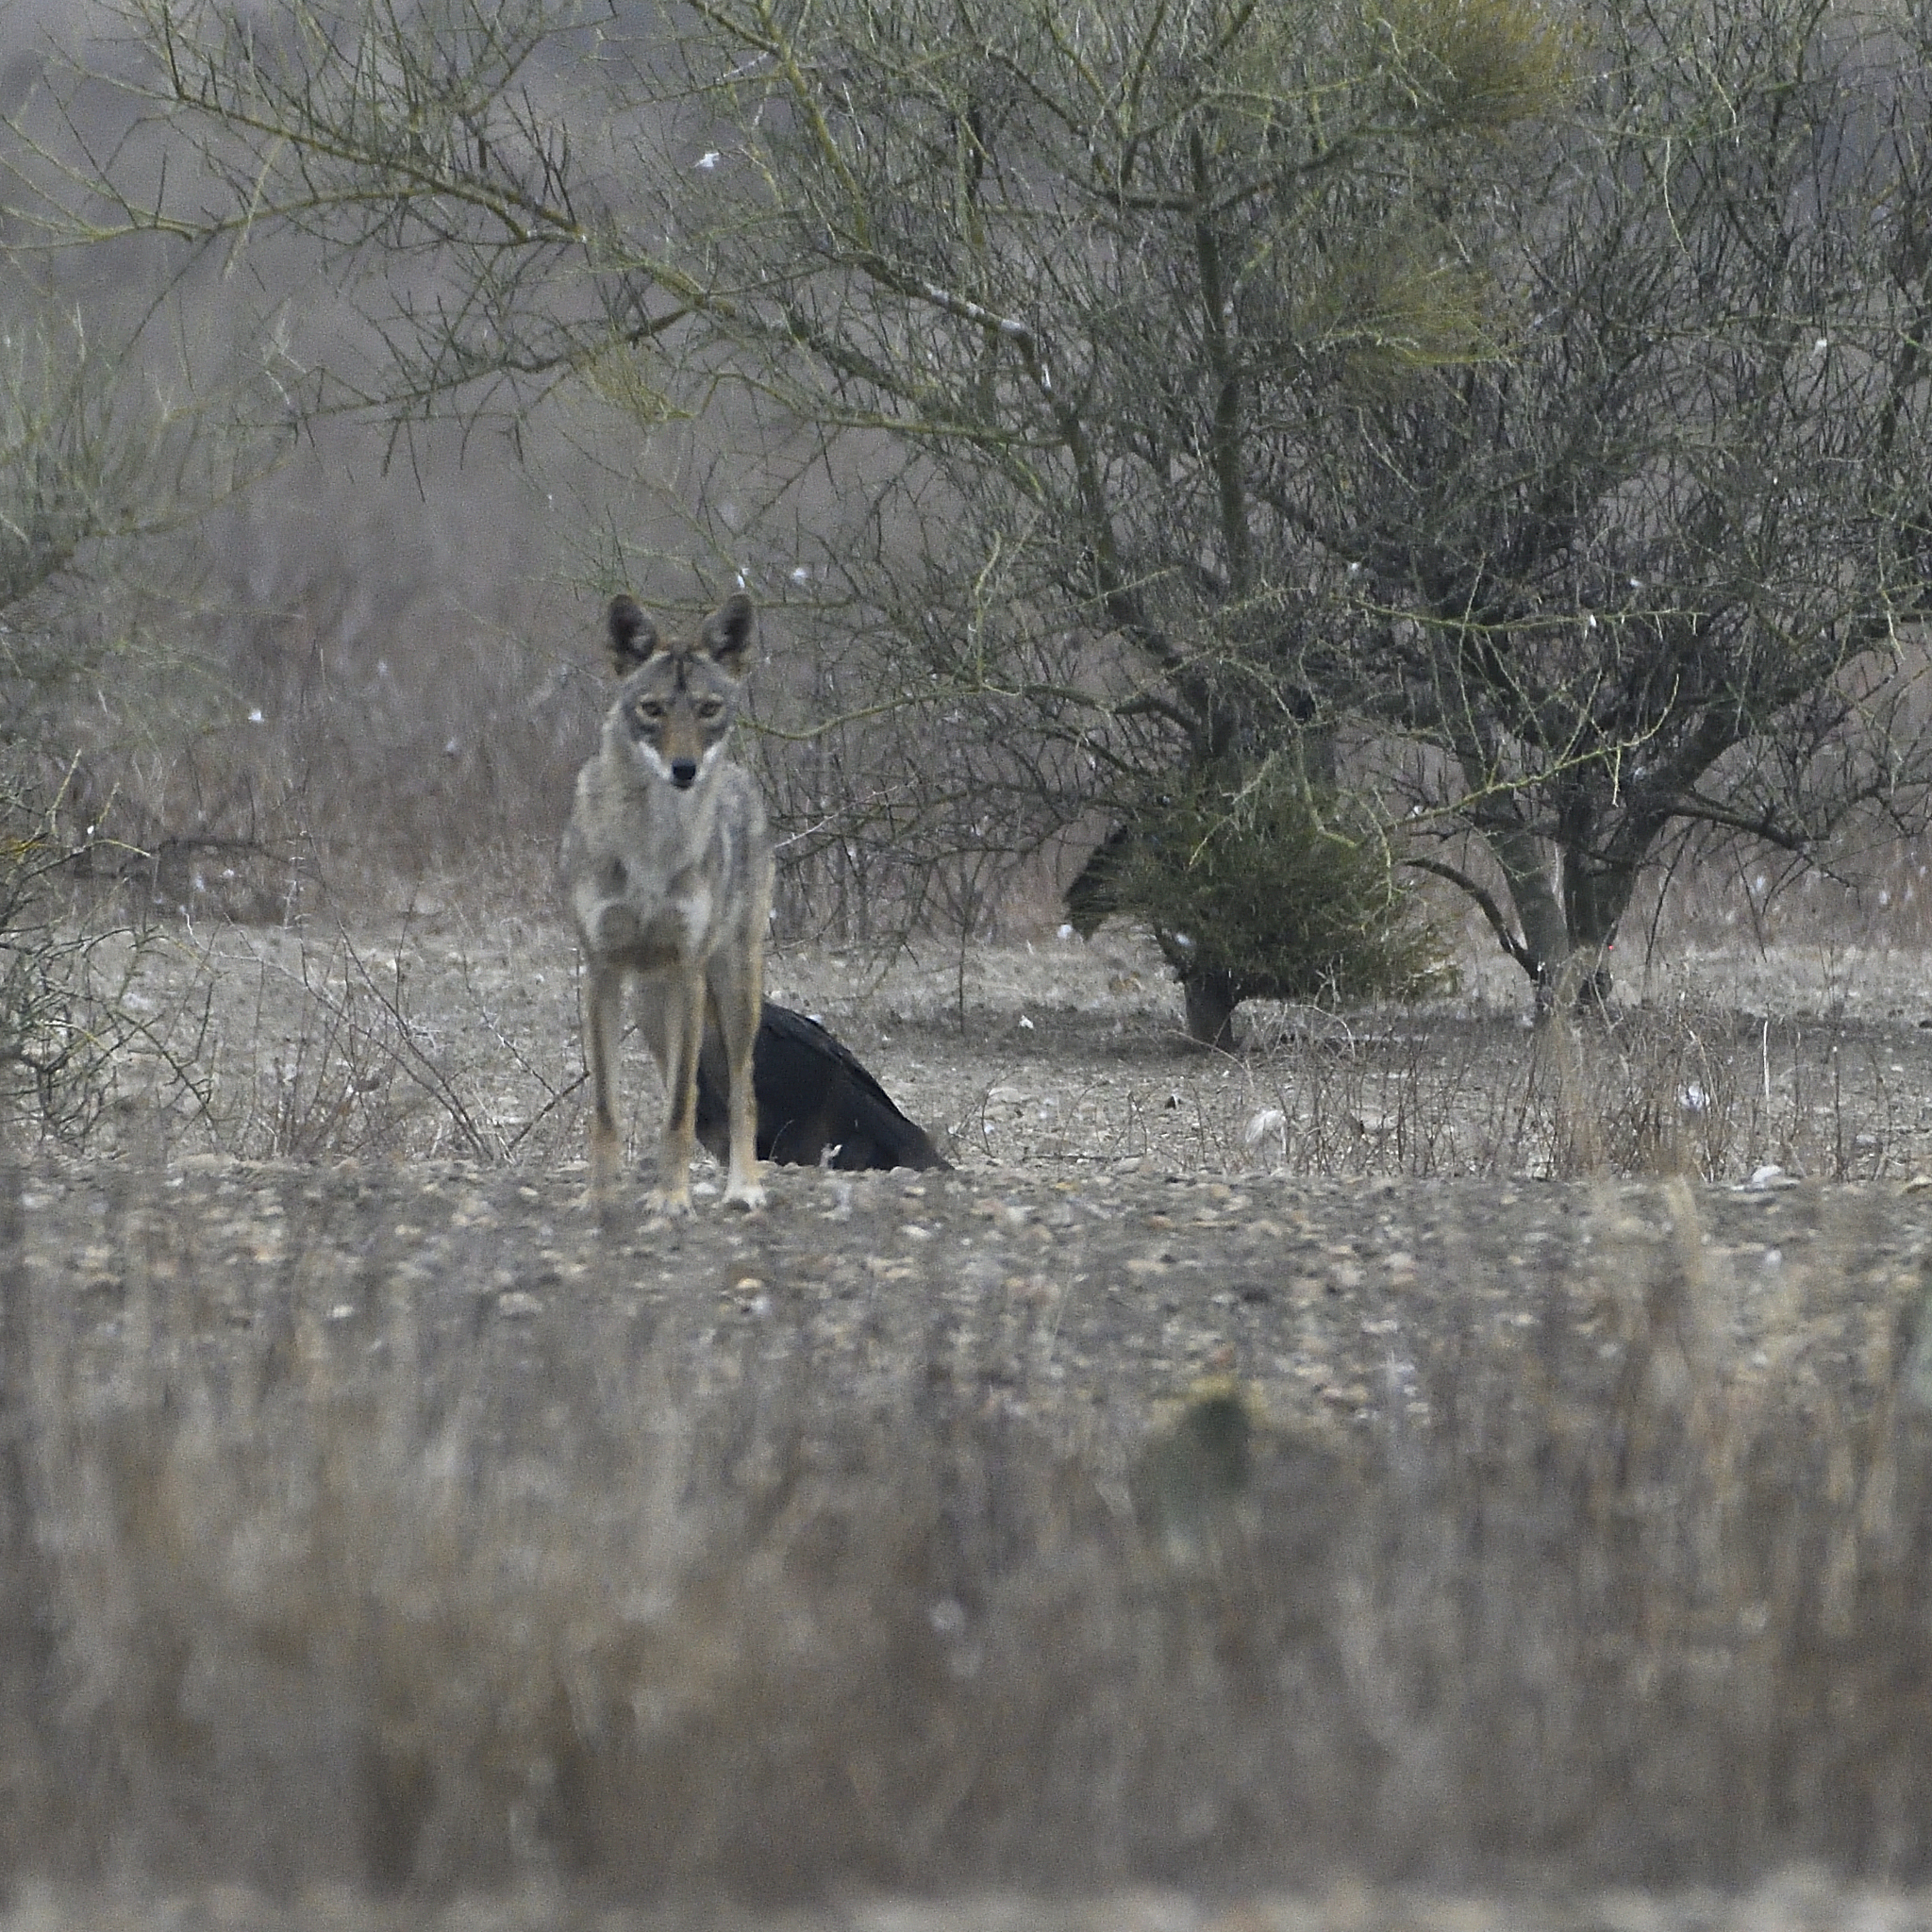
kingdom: Animalia
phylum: Chordata
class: Mammalia
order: Carnivora
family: Canidae
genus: Canis
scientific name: Canis latrans
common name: Coyote
